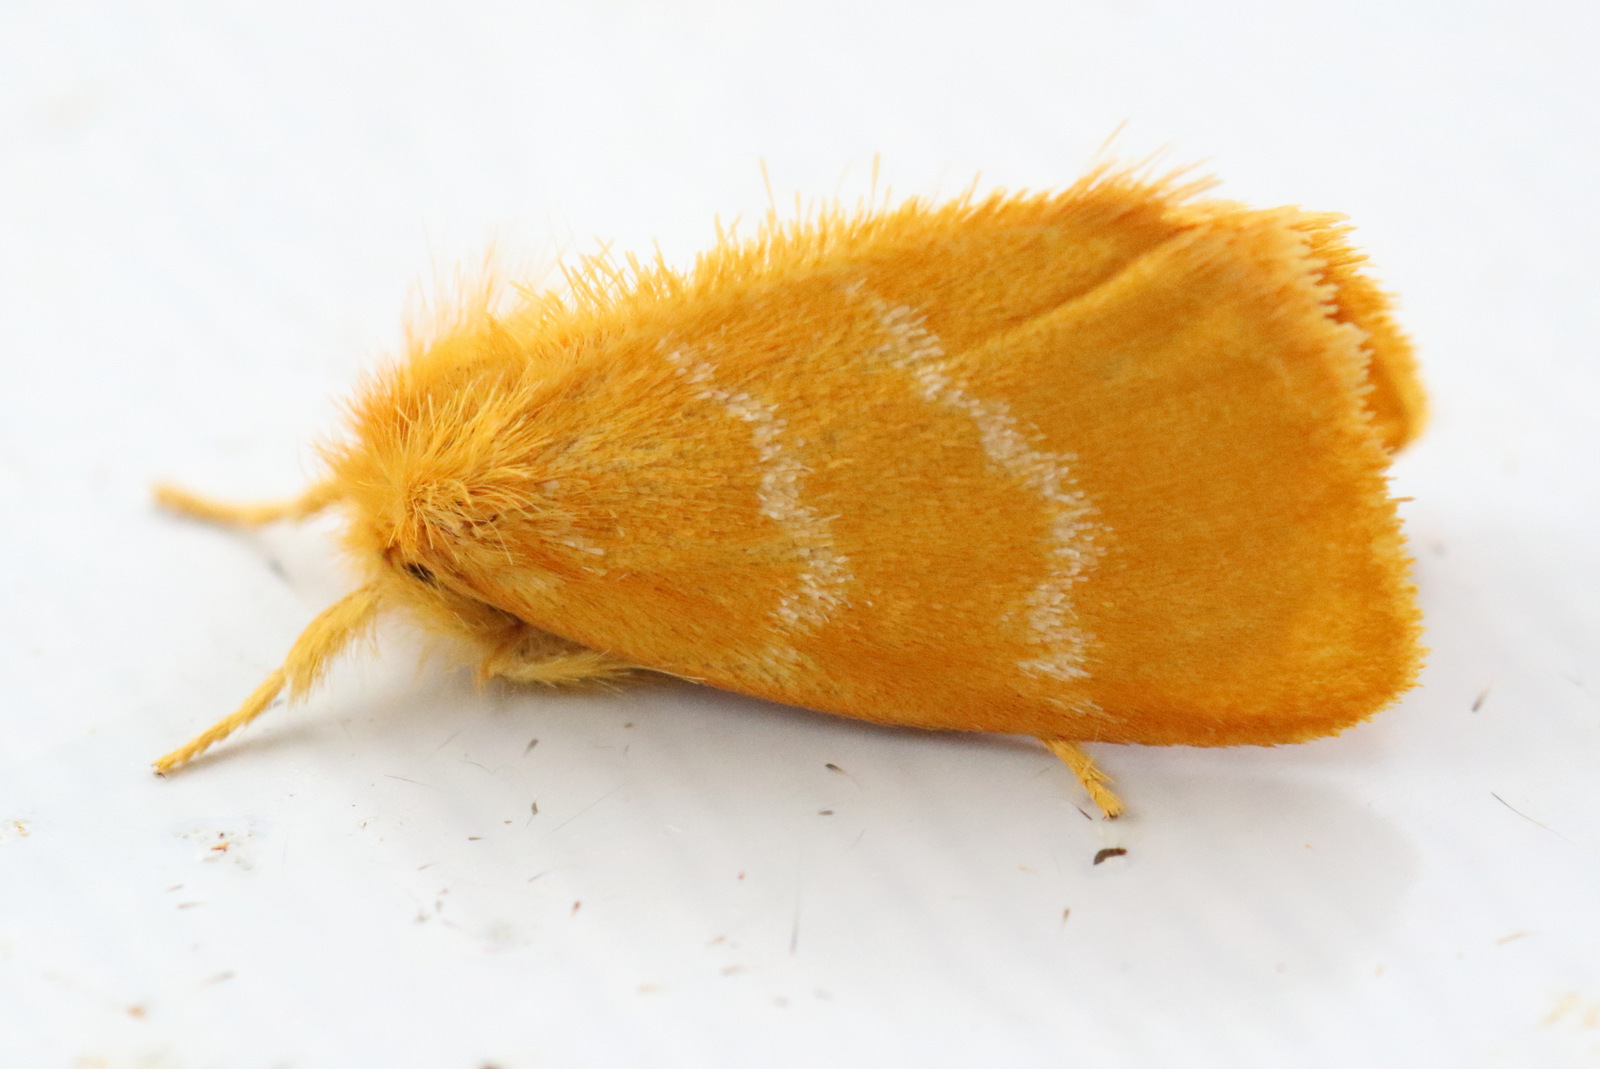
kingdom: Animalia
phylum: Arthropoda
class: Insecta
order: Lepidoptera
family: Erebidae
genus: Euproctis
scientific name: Euproctis lutea
